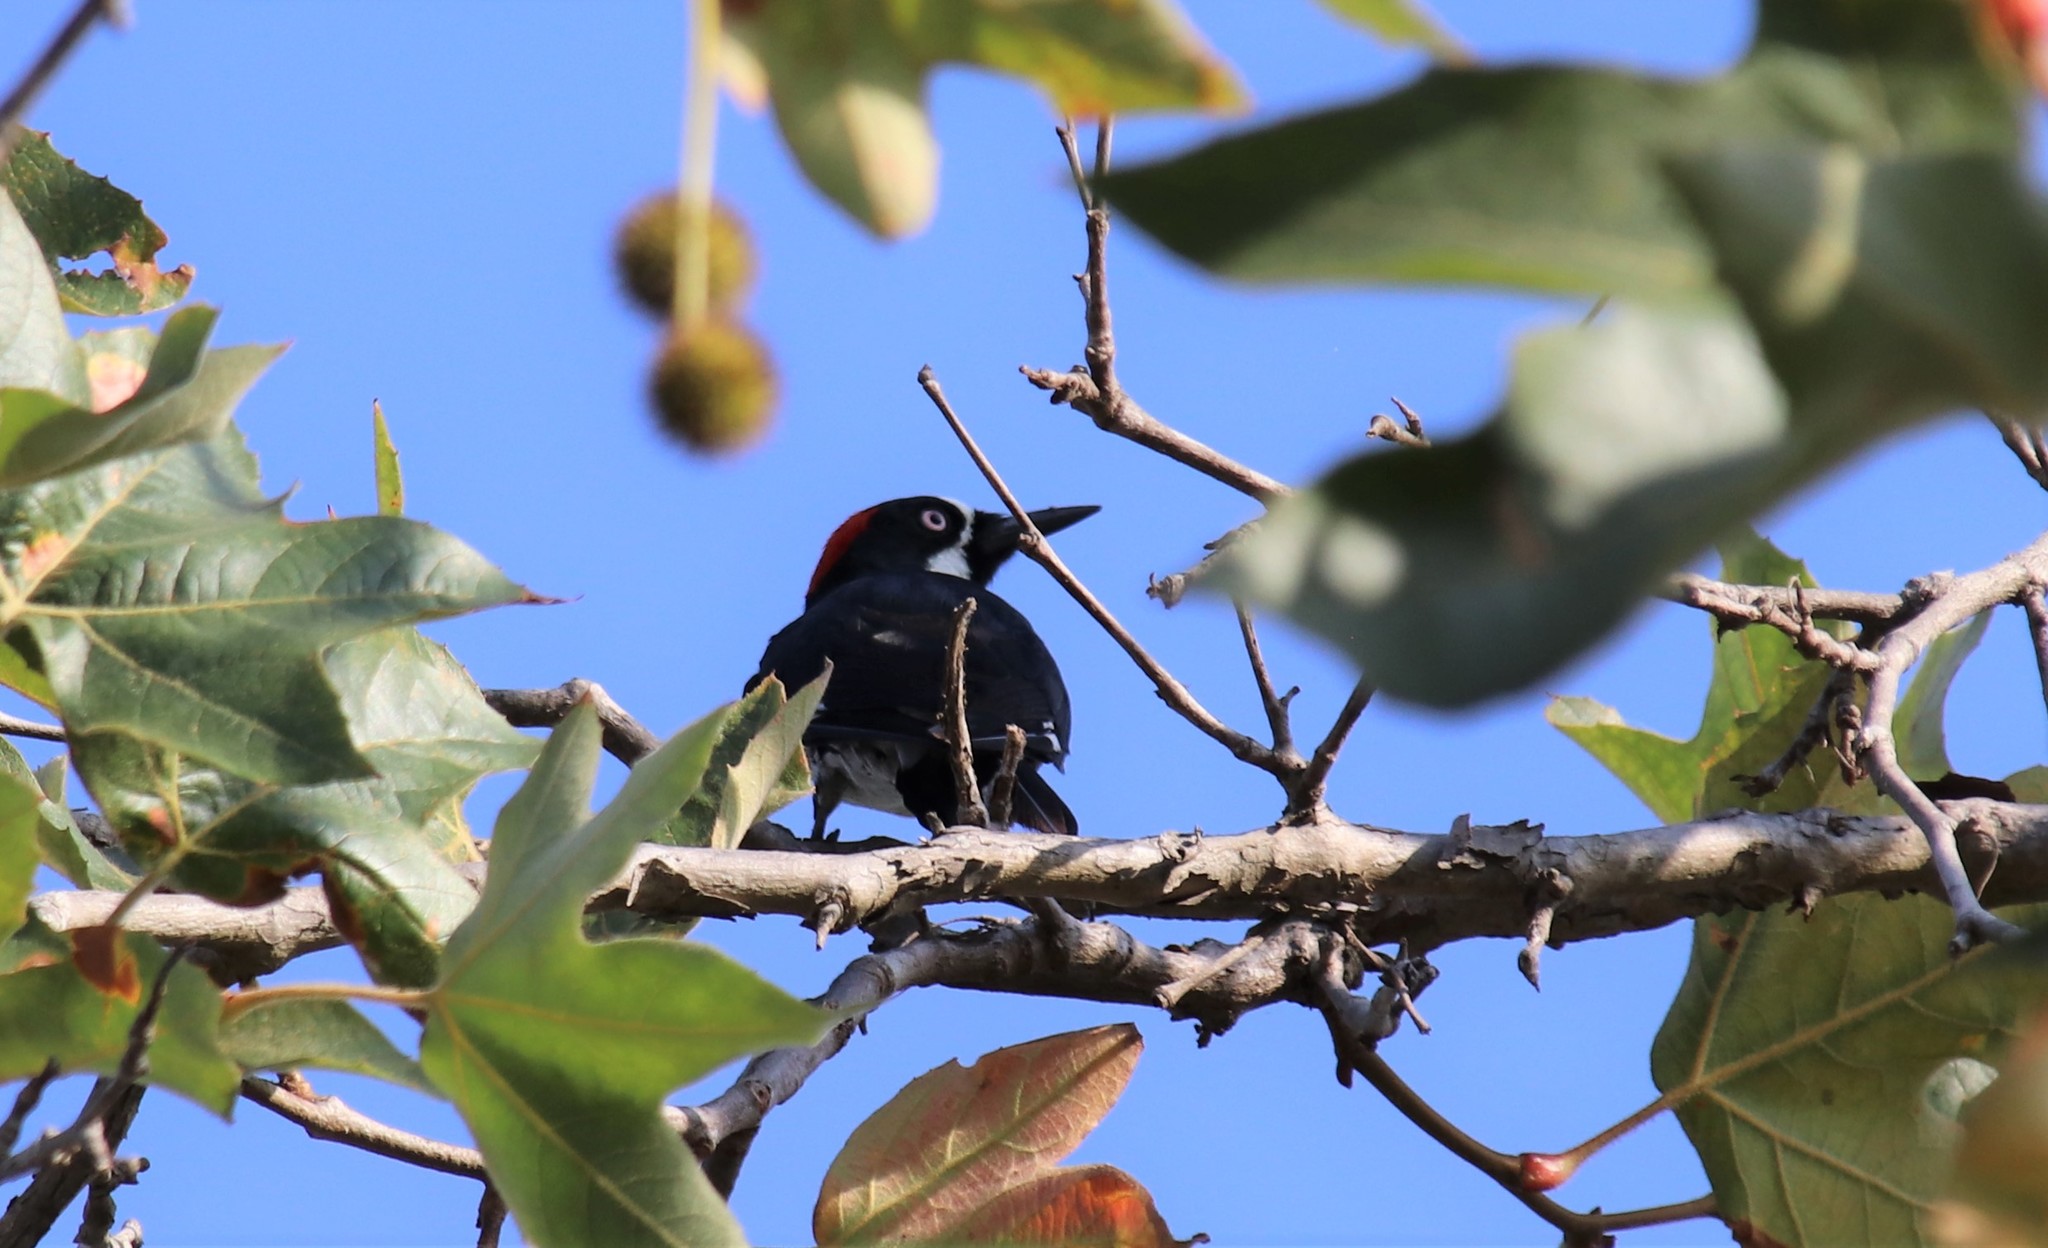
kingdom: Animalia
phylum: Chordata
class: Aves
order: Piciformes
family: Picidae
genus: Melanerpes
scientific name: Melanerpes formicivorus
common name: Acorn woodpecker
